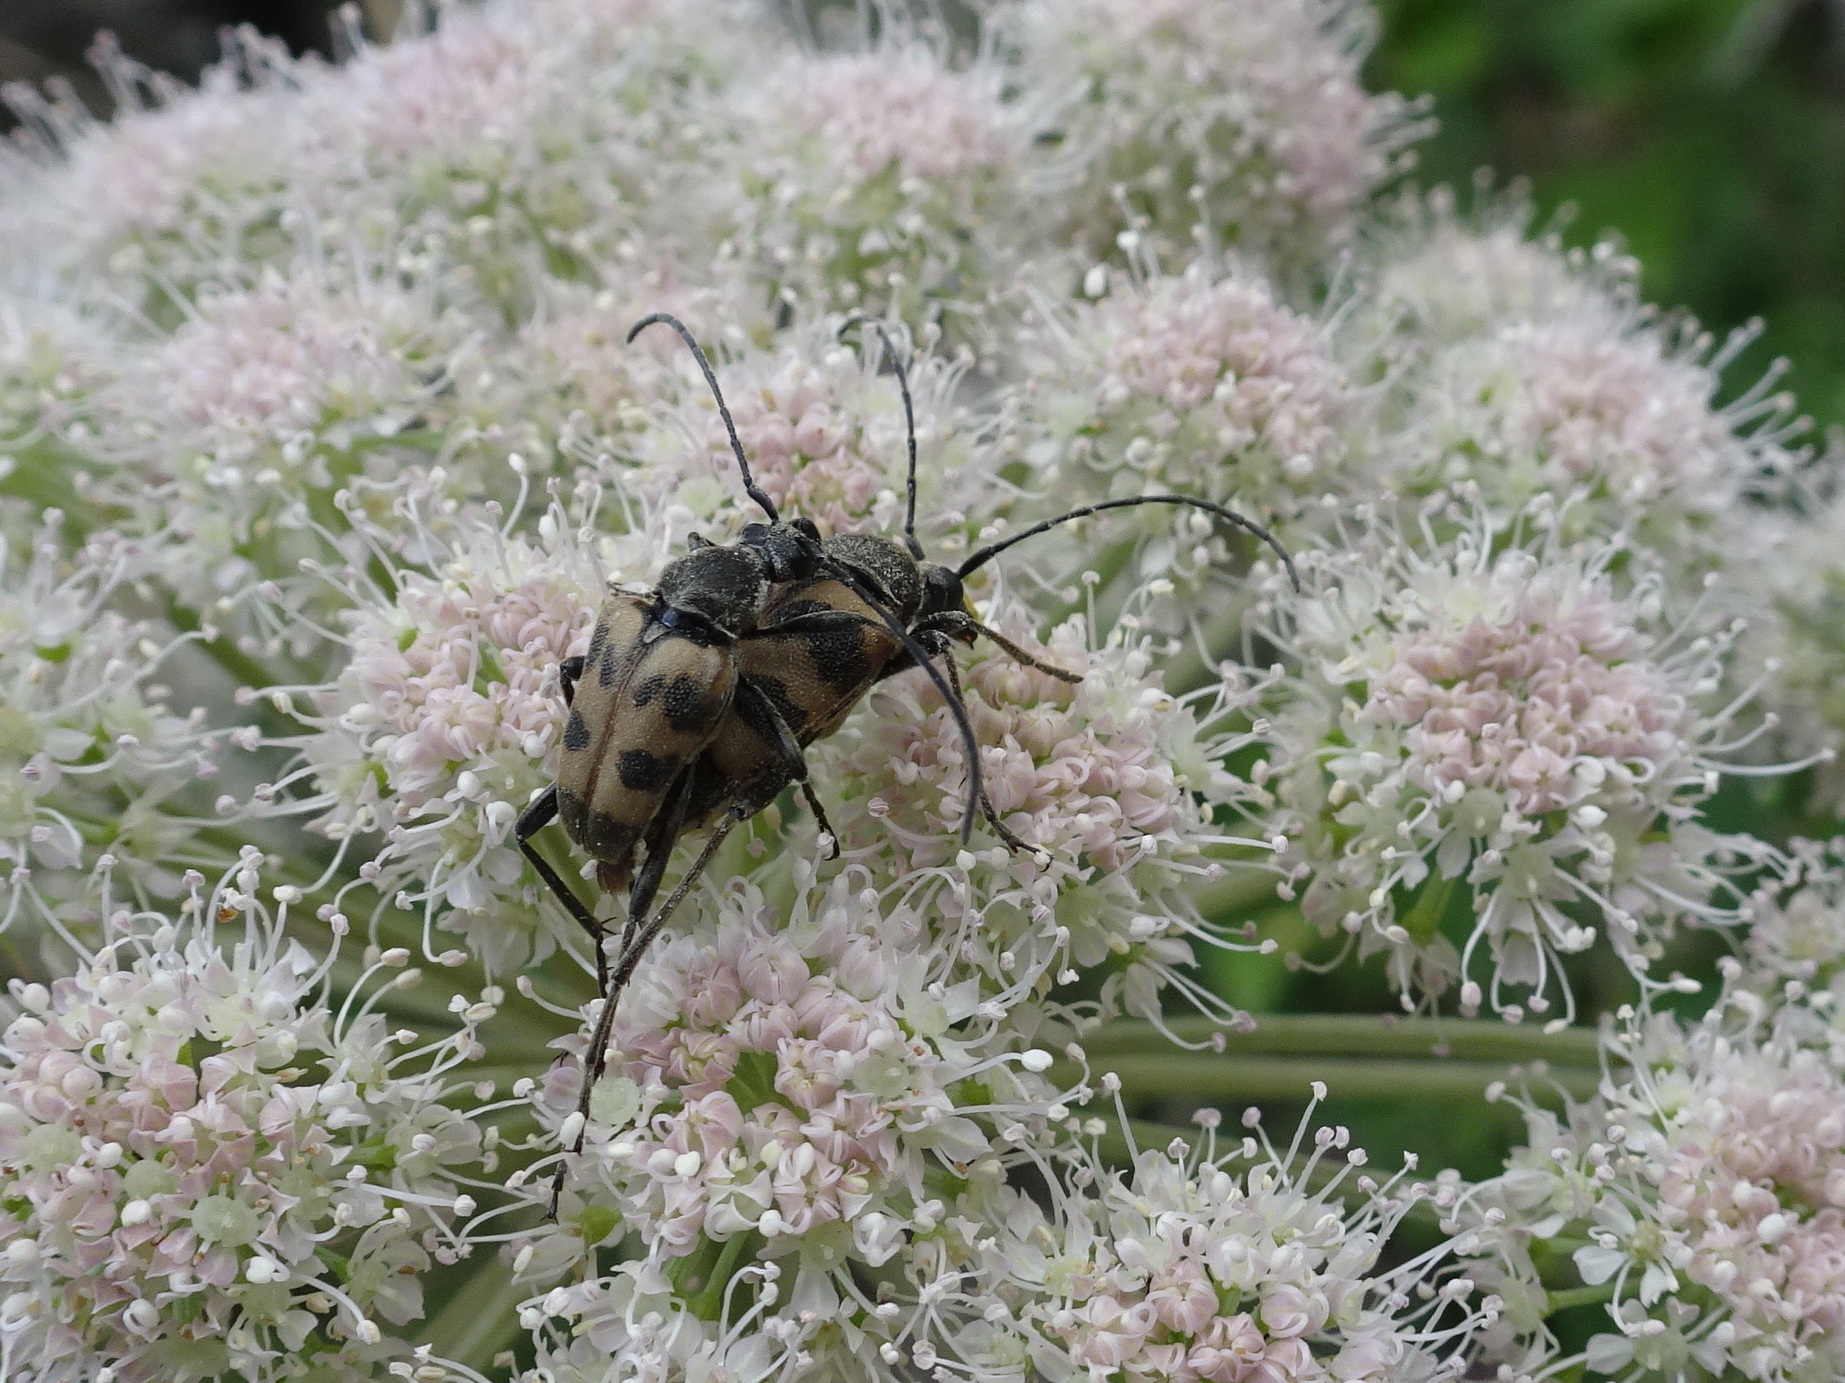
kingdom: Animalia
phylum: Arthropoda
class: Insecta
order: Coleoptera
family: Cerambycidae
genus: Pachytodes
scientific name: Pachytodes cerambyciformis
